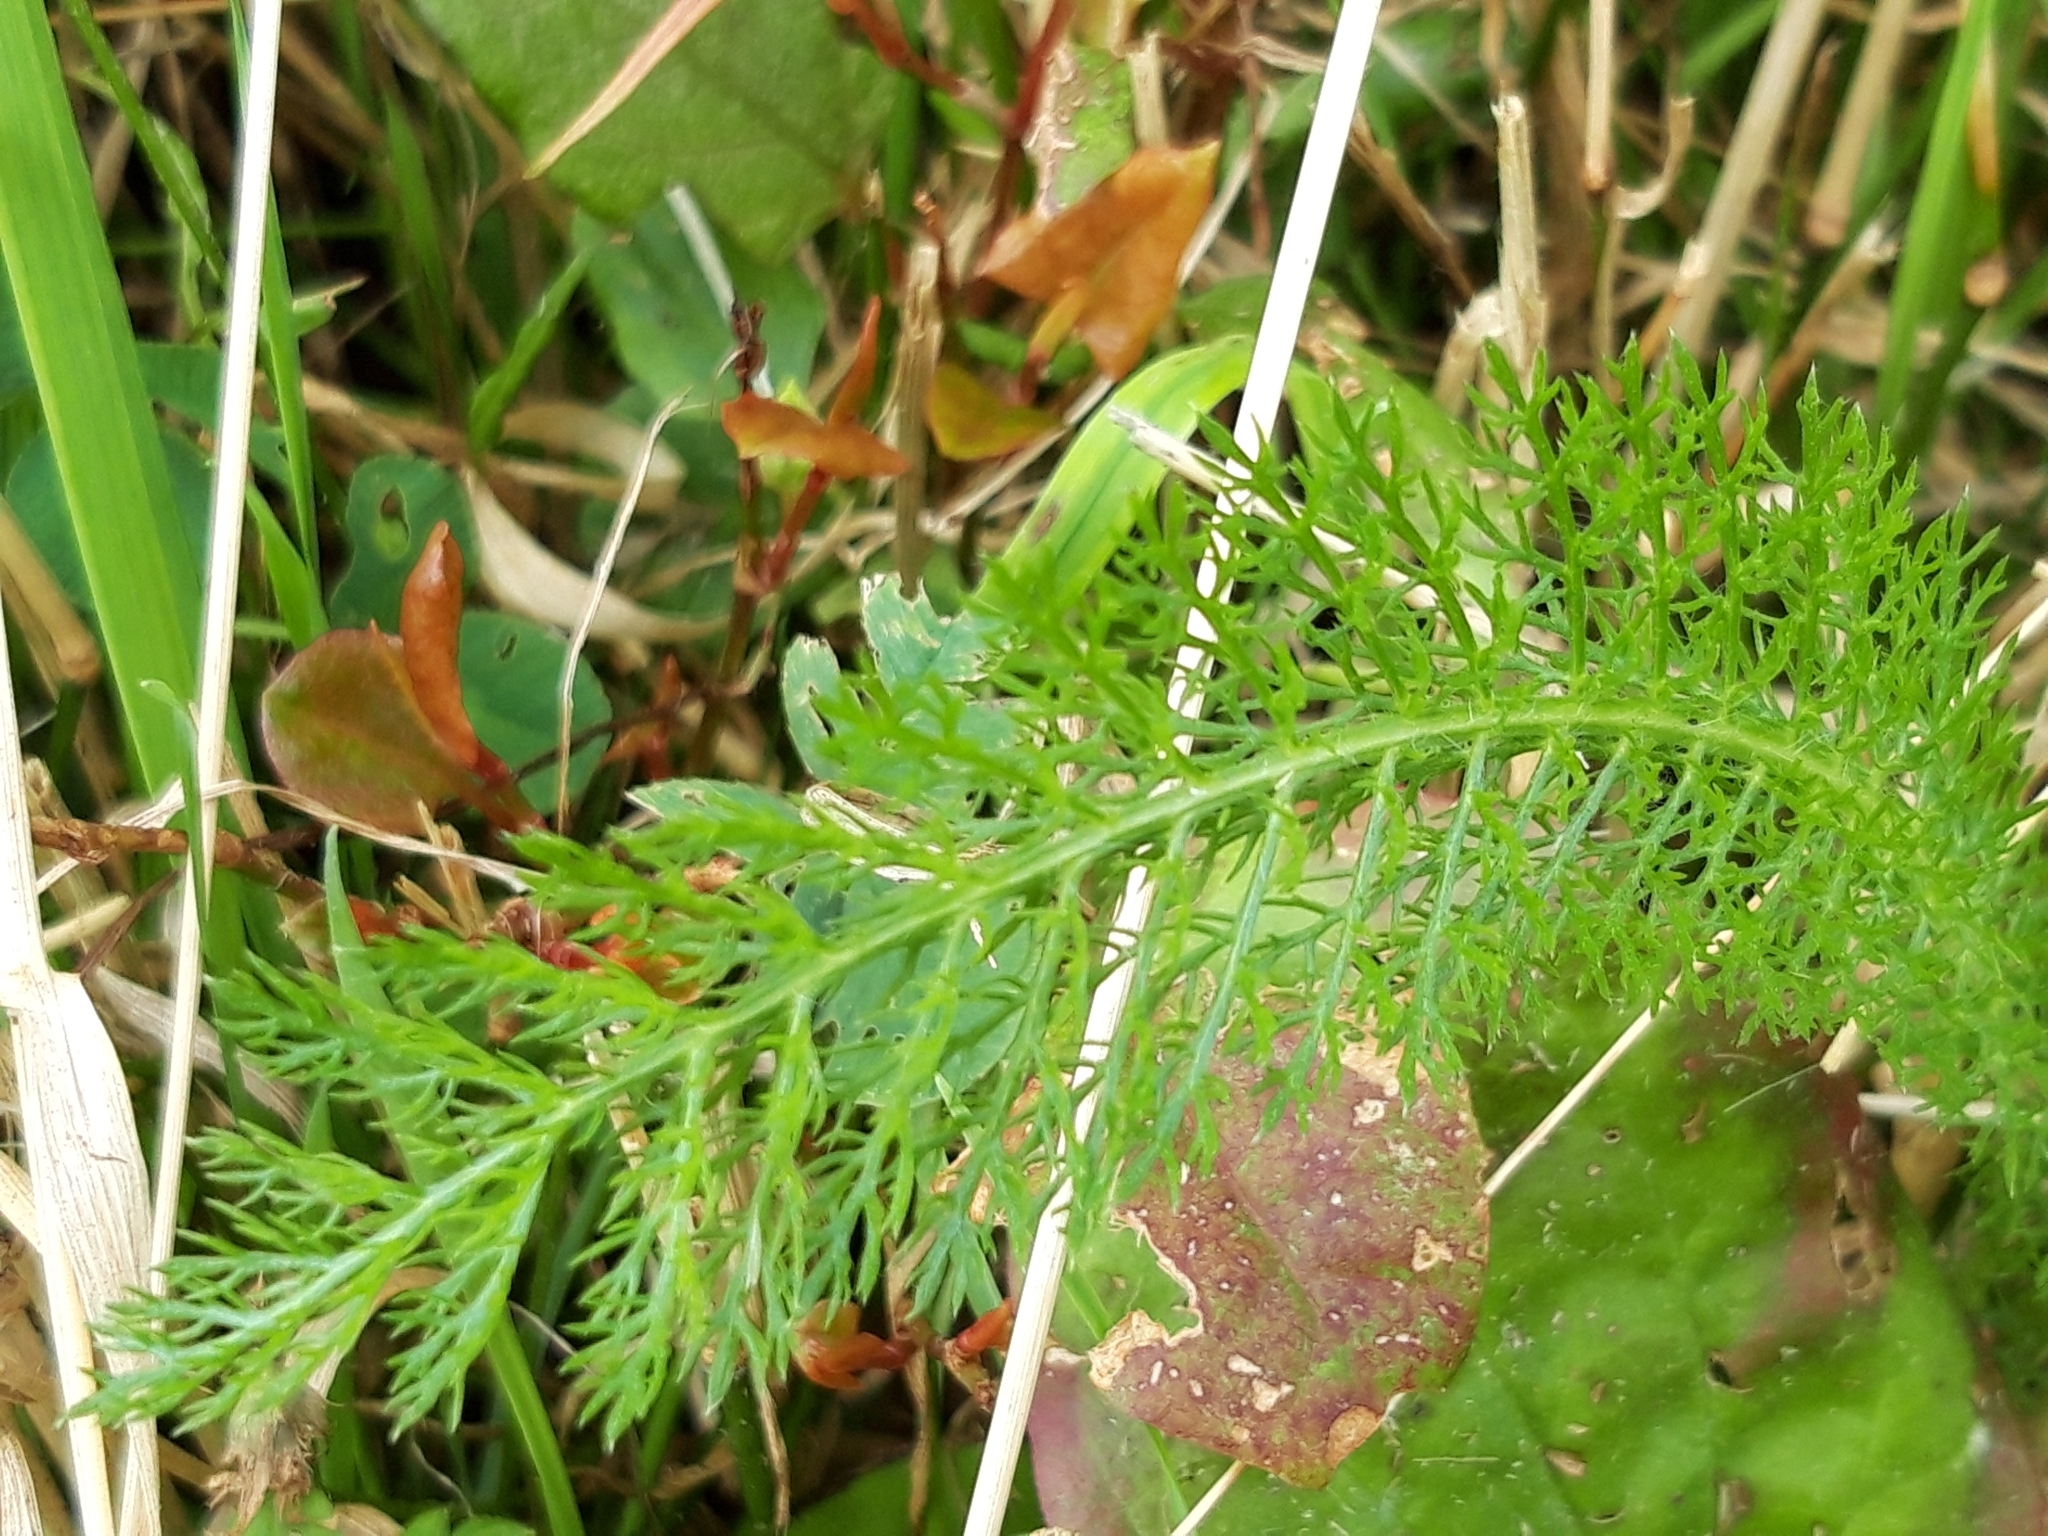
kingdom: Plantae
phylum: Tracheophyta
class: Magnoliopsida
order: Asterales
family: Asteraceae
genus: Achillea
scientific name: Achillea millefolium
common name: Yarrow
